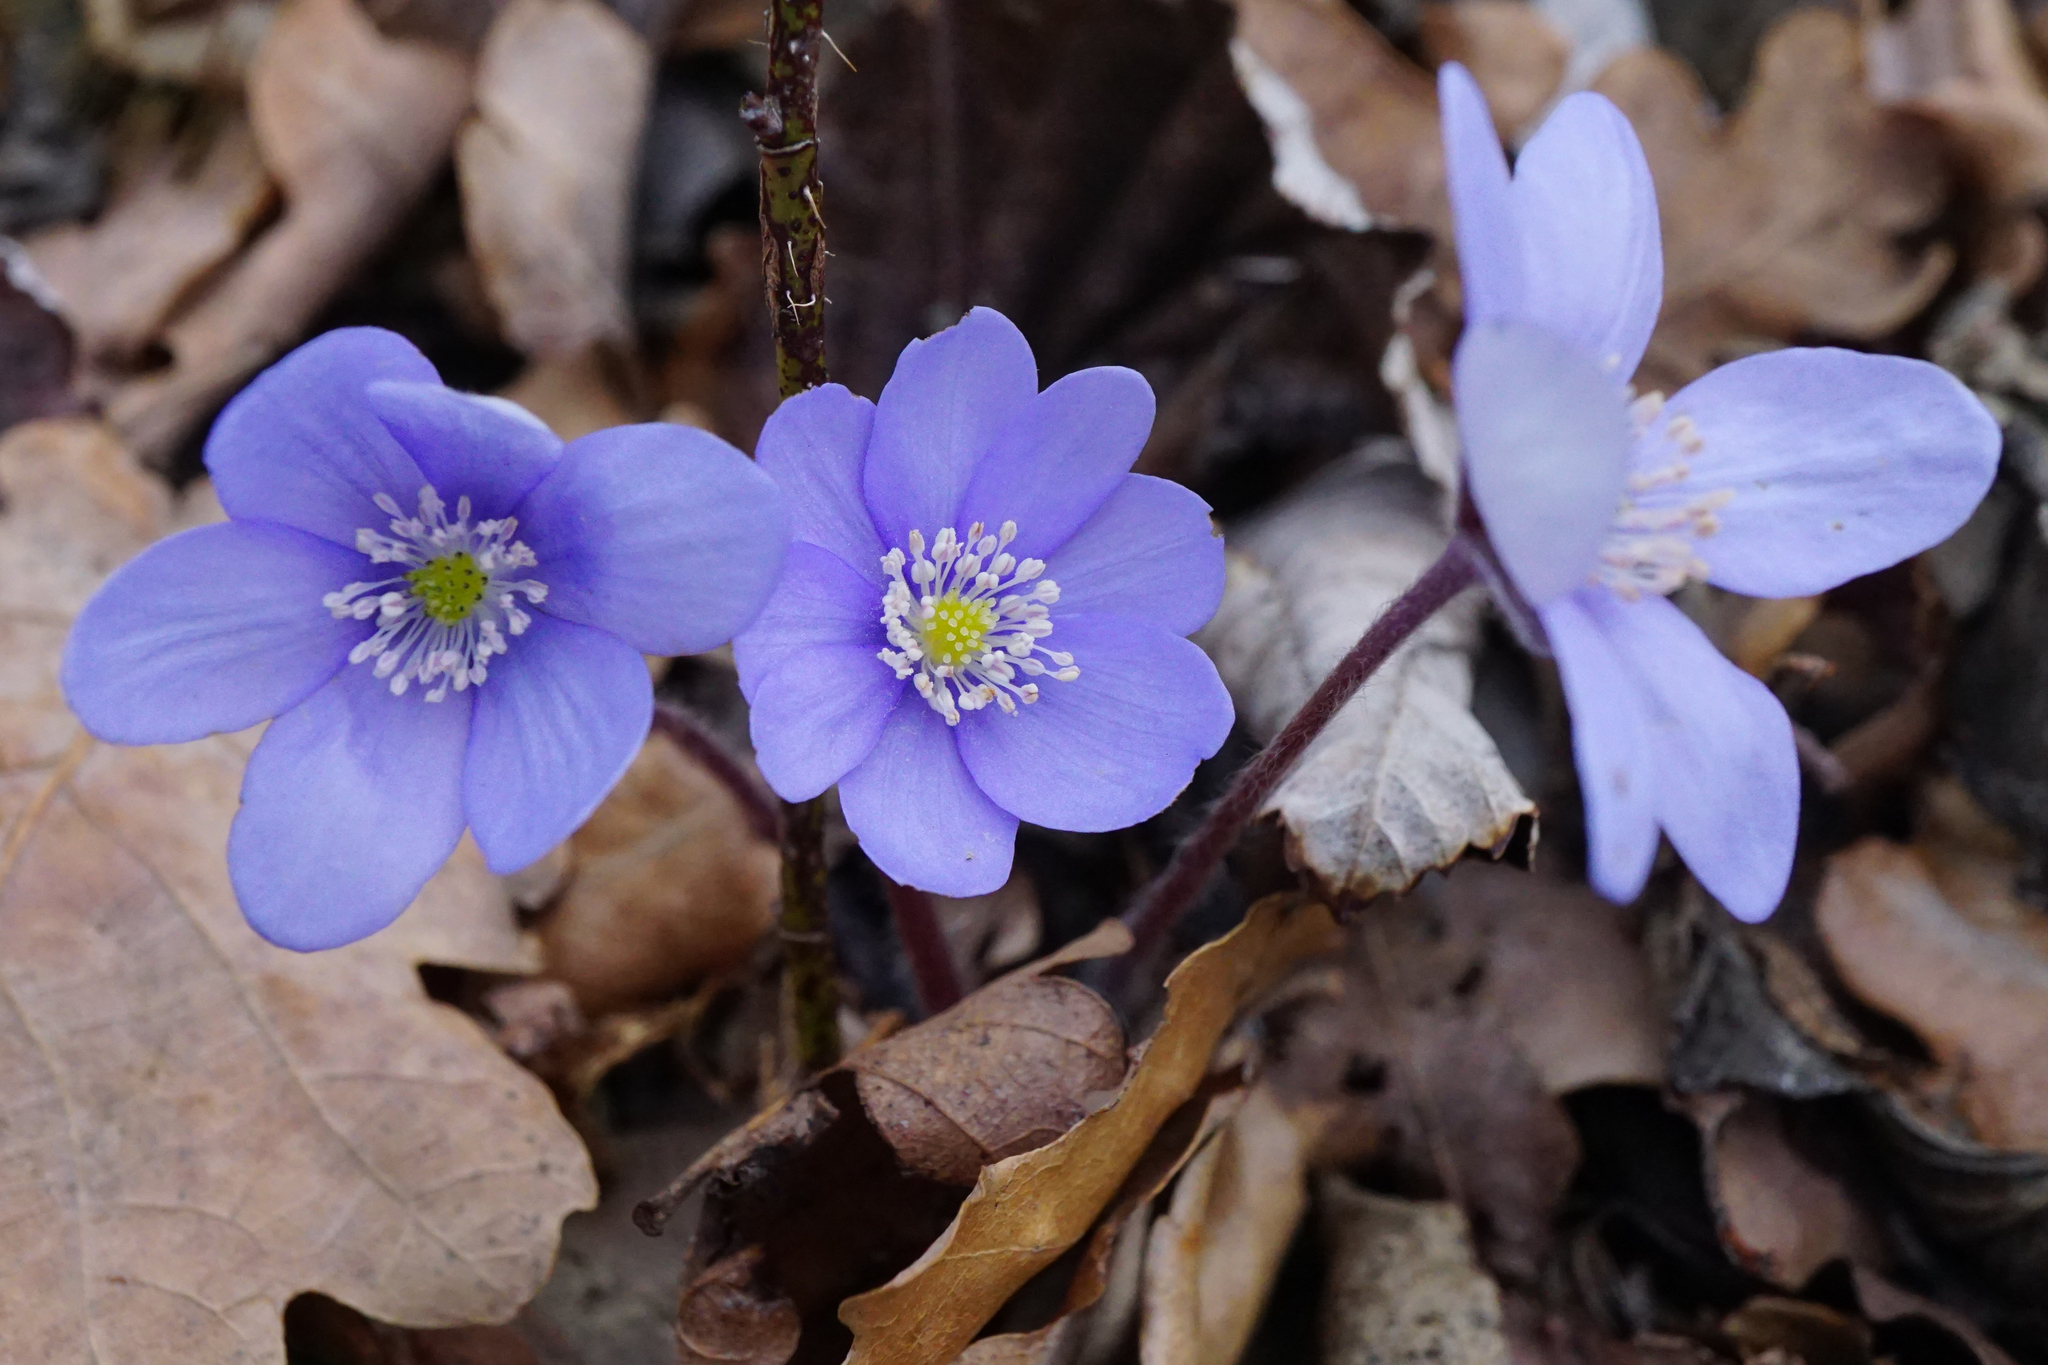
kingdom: Plantae
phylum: Tracheophyta
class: Magnoliopsida
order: Ranunculales
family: Ranunculaceae
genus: Hepatica
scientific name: Hepatica nobilis
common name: Liverleaf
